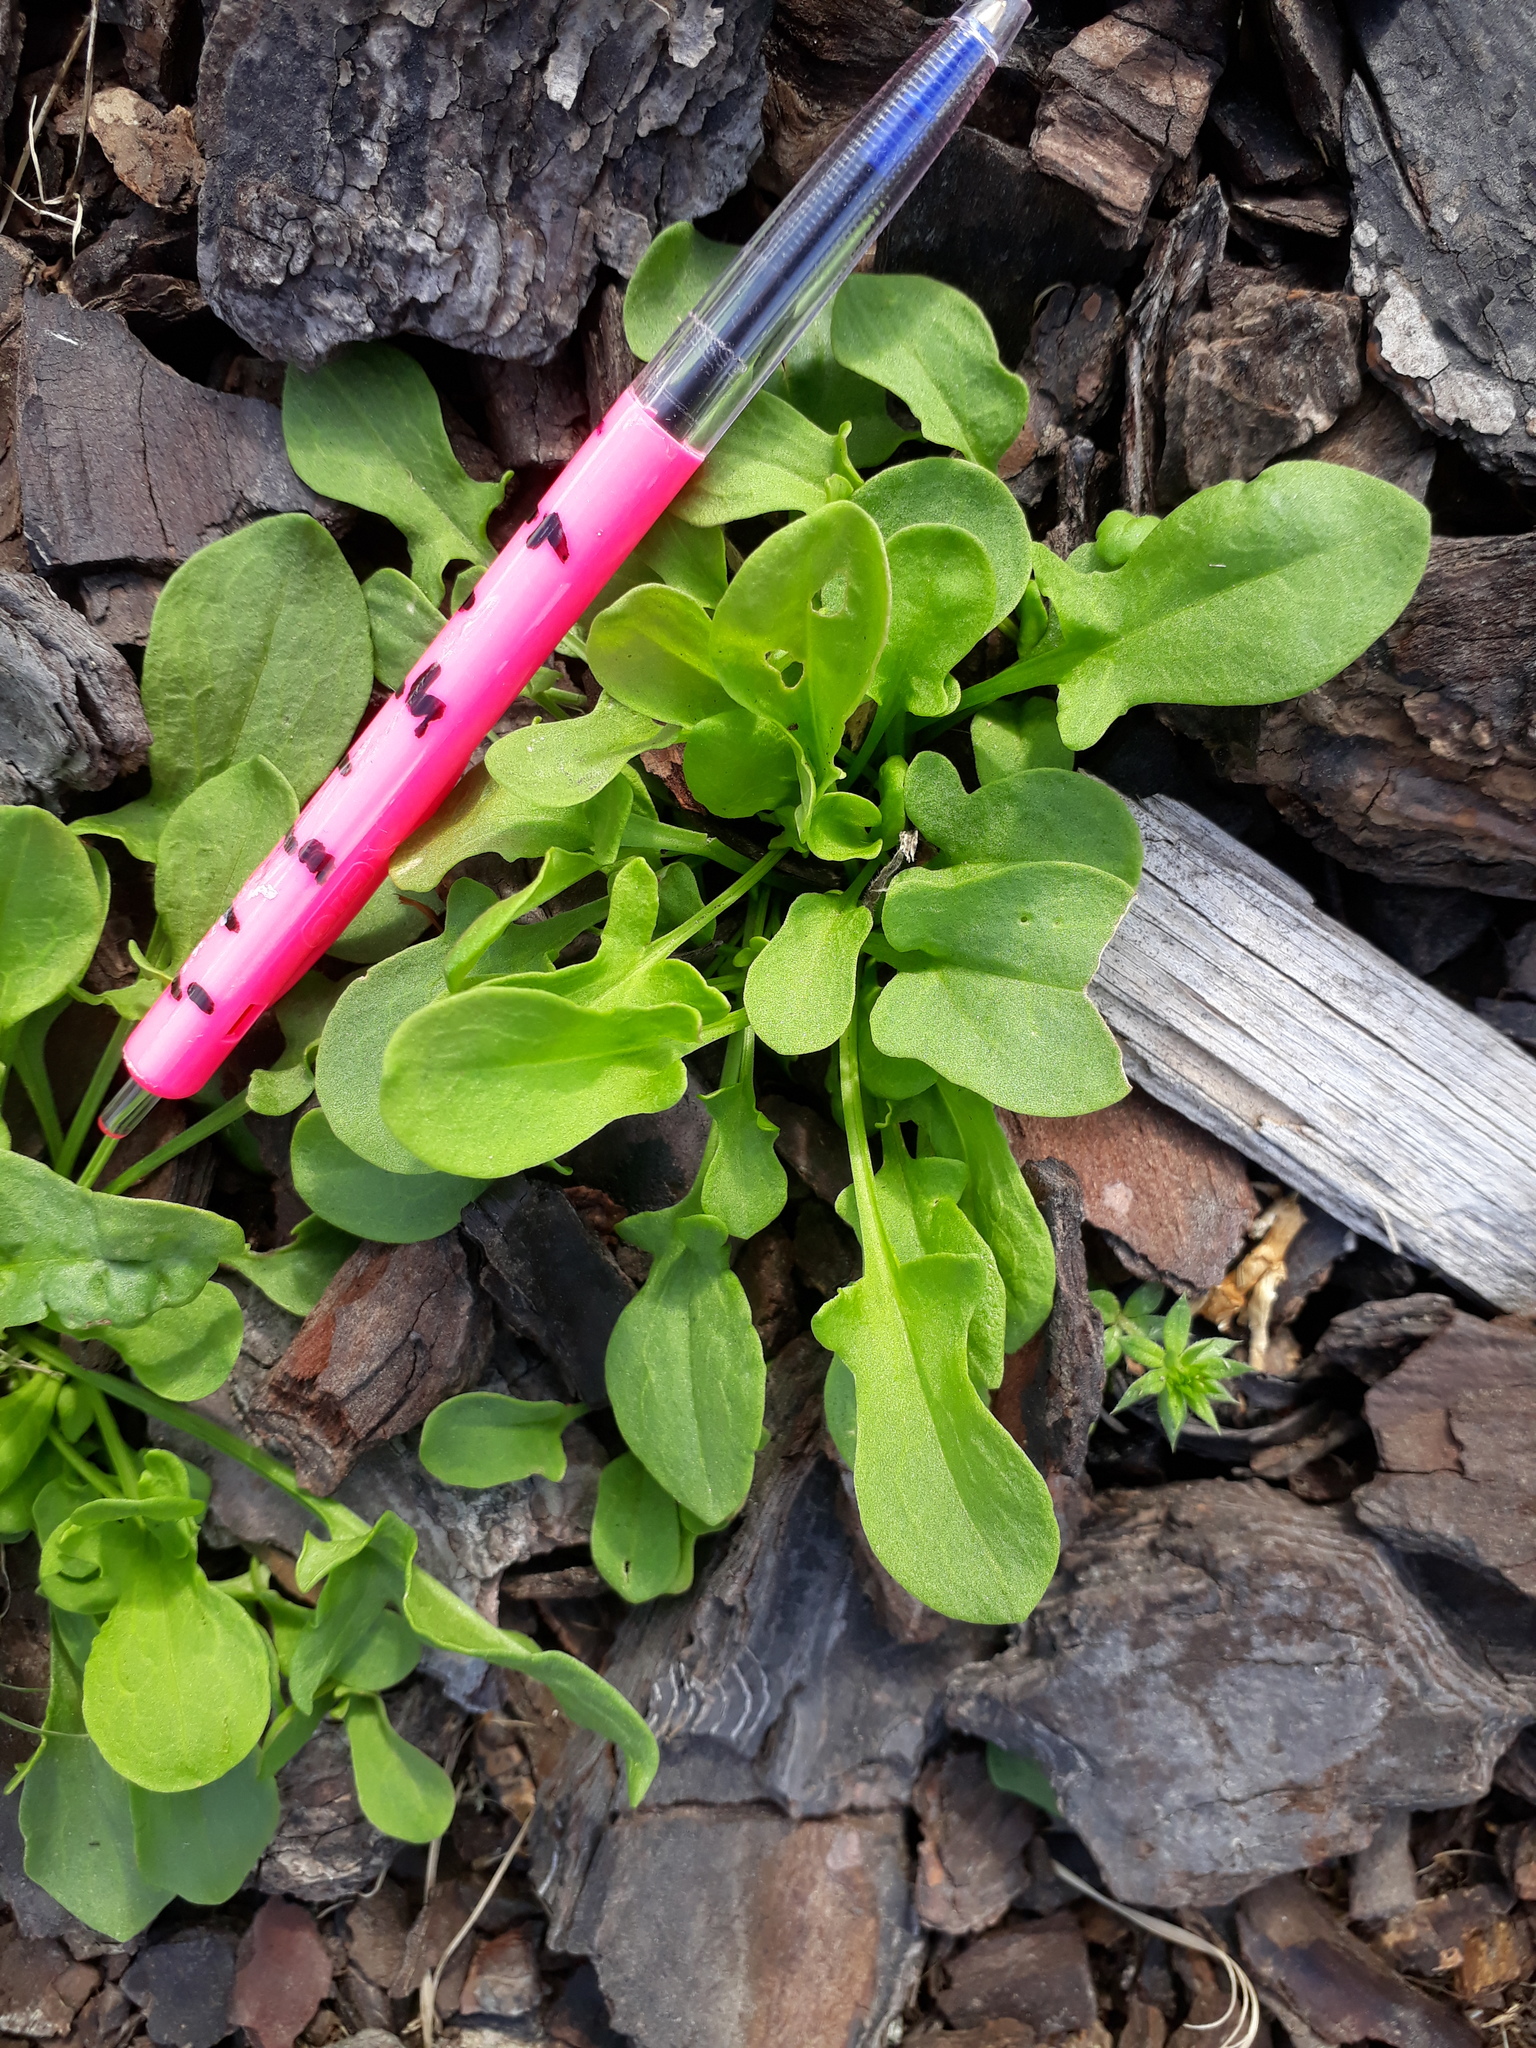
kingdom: Plantae
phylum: Tracheophyta
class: Magnoliopsida
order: Caryophyllales
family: Polygonaceae
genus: Rumex
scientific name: Rumex acetosella
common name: Common sheep sorrel
